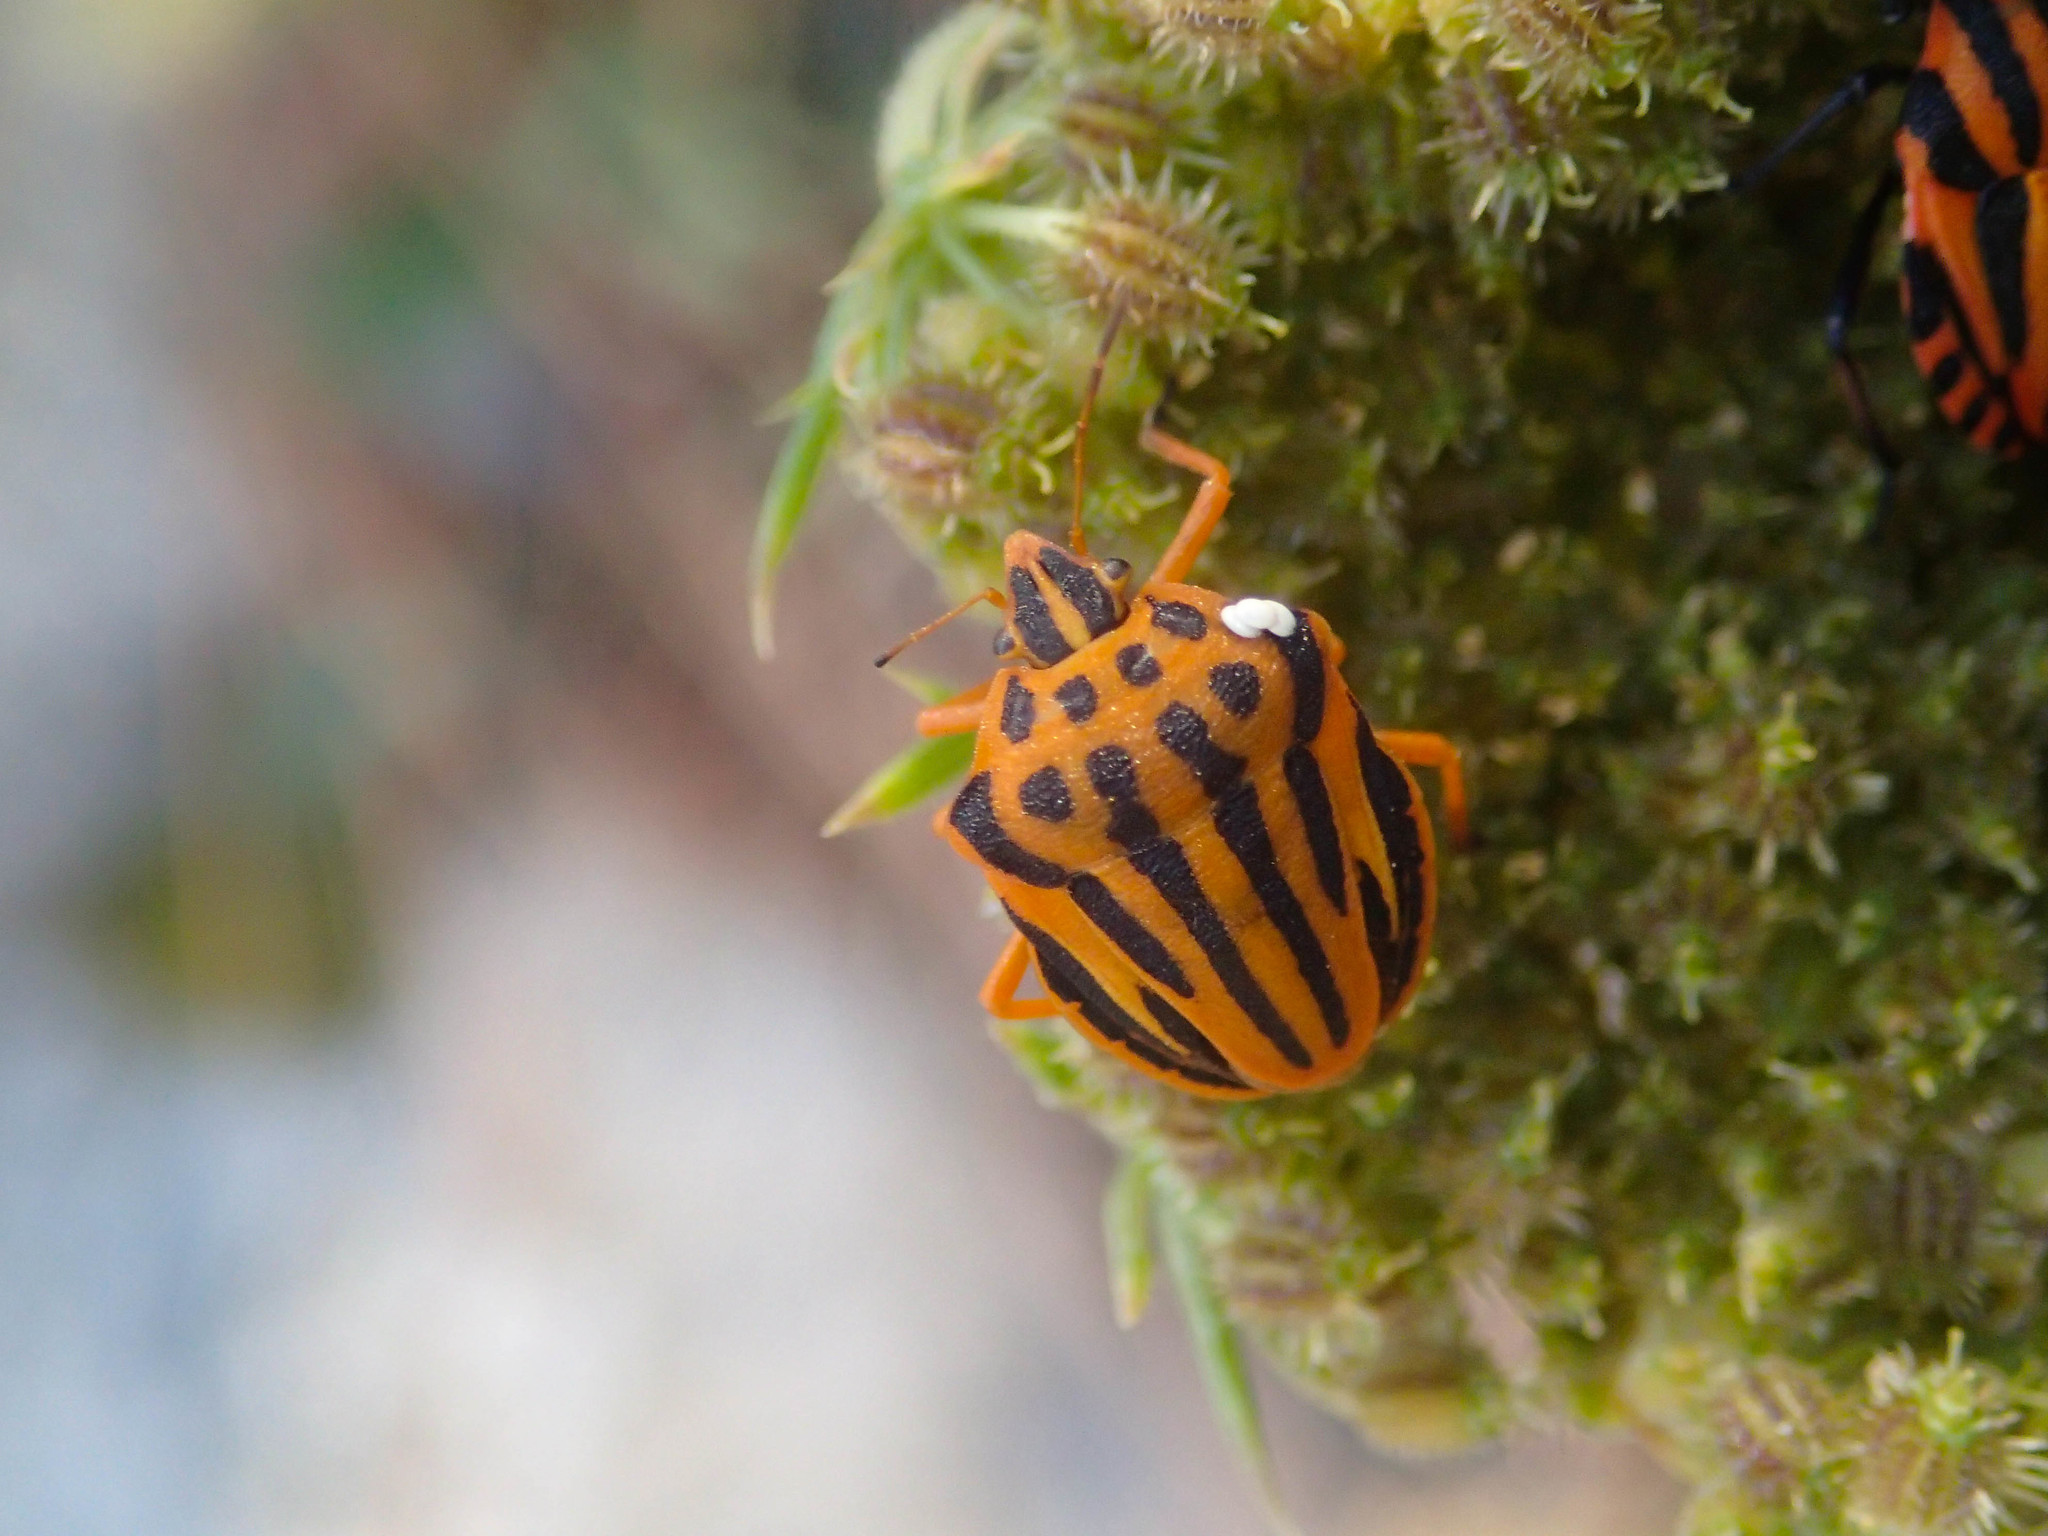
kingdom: Animalia
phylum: Arthropoda
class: Insecta
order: Hemiptera
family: Pentatomidae
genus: Graphosoma
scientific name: Graphosoma semipunctatum
